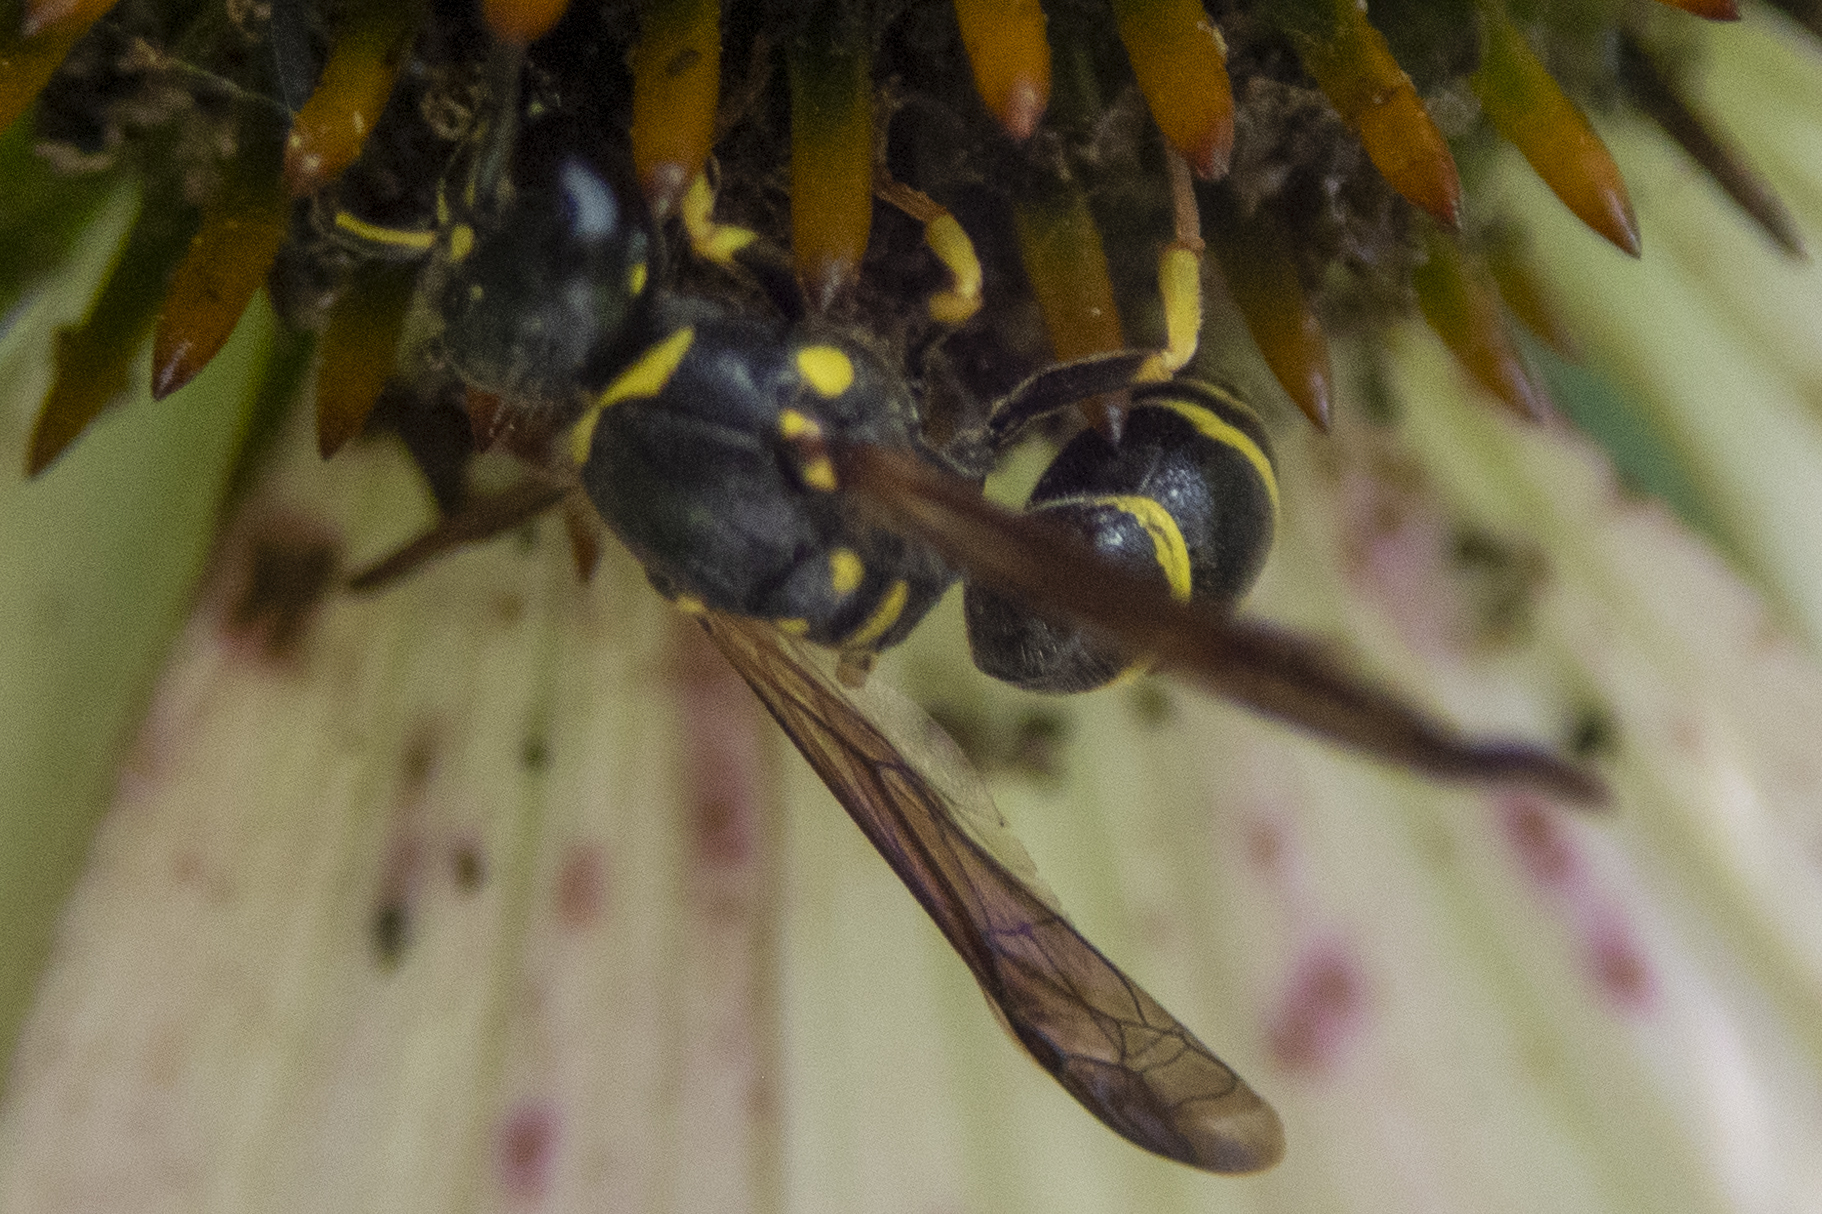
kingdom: Animalia
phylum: Arthropoda
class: Insecta
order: Hymenoptera
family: Vespidae
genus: Ancistrocerus
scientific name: Ancistrocerus adiabatus
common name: Bramble mason wasp
